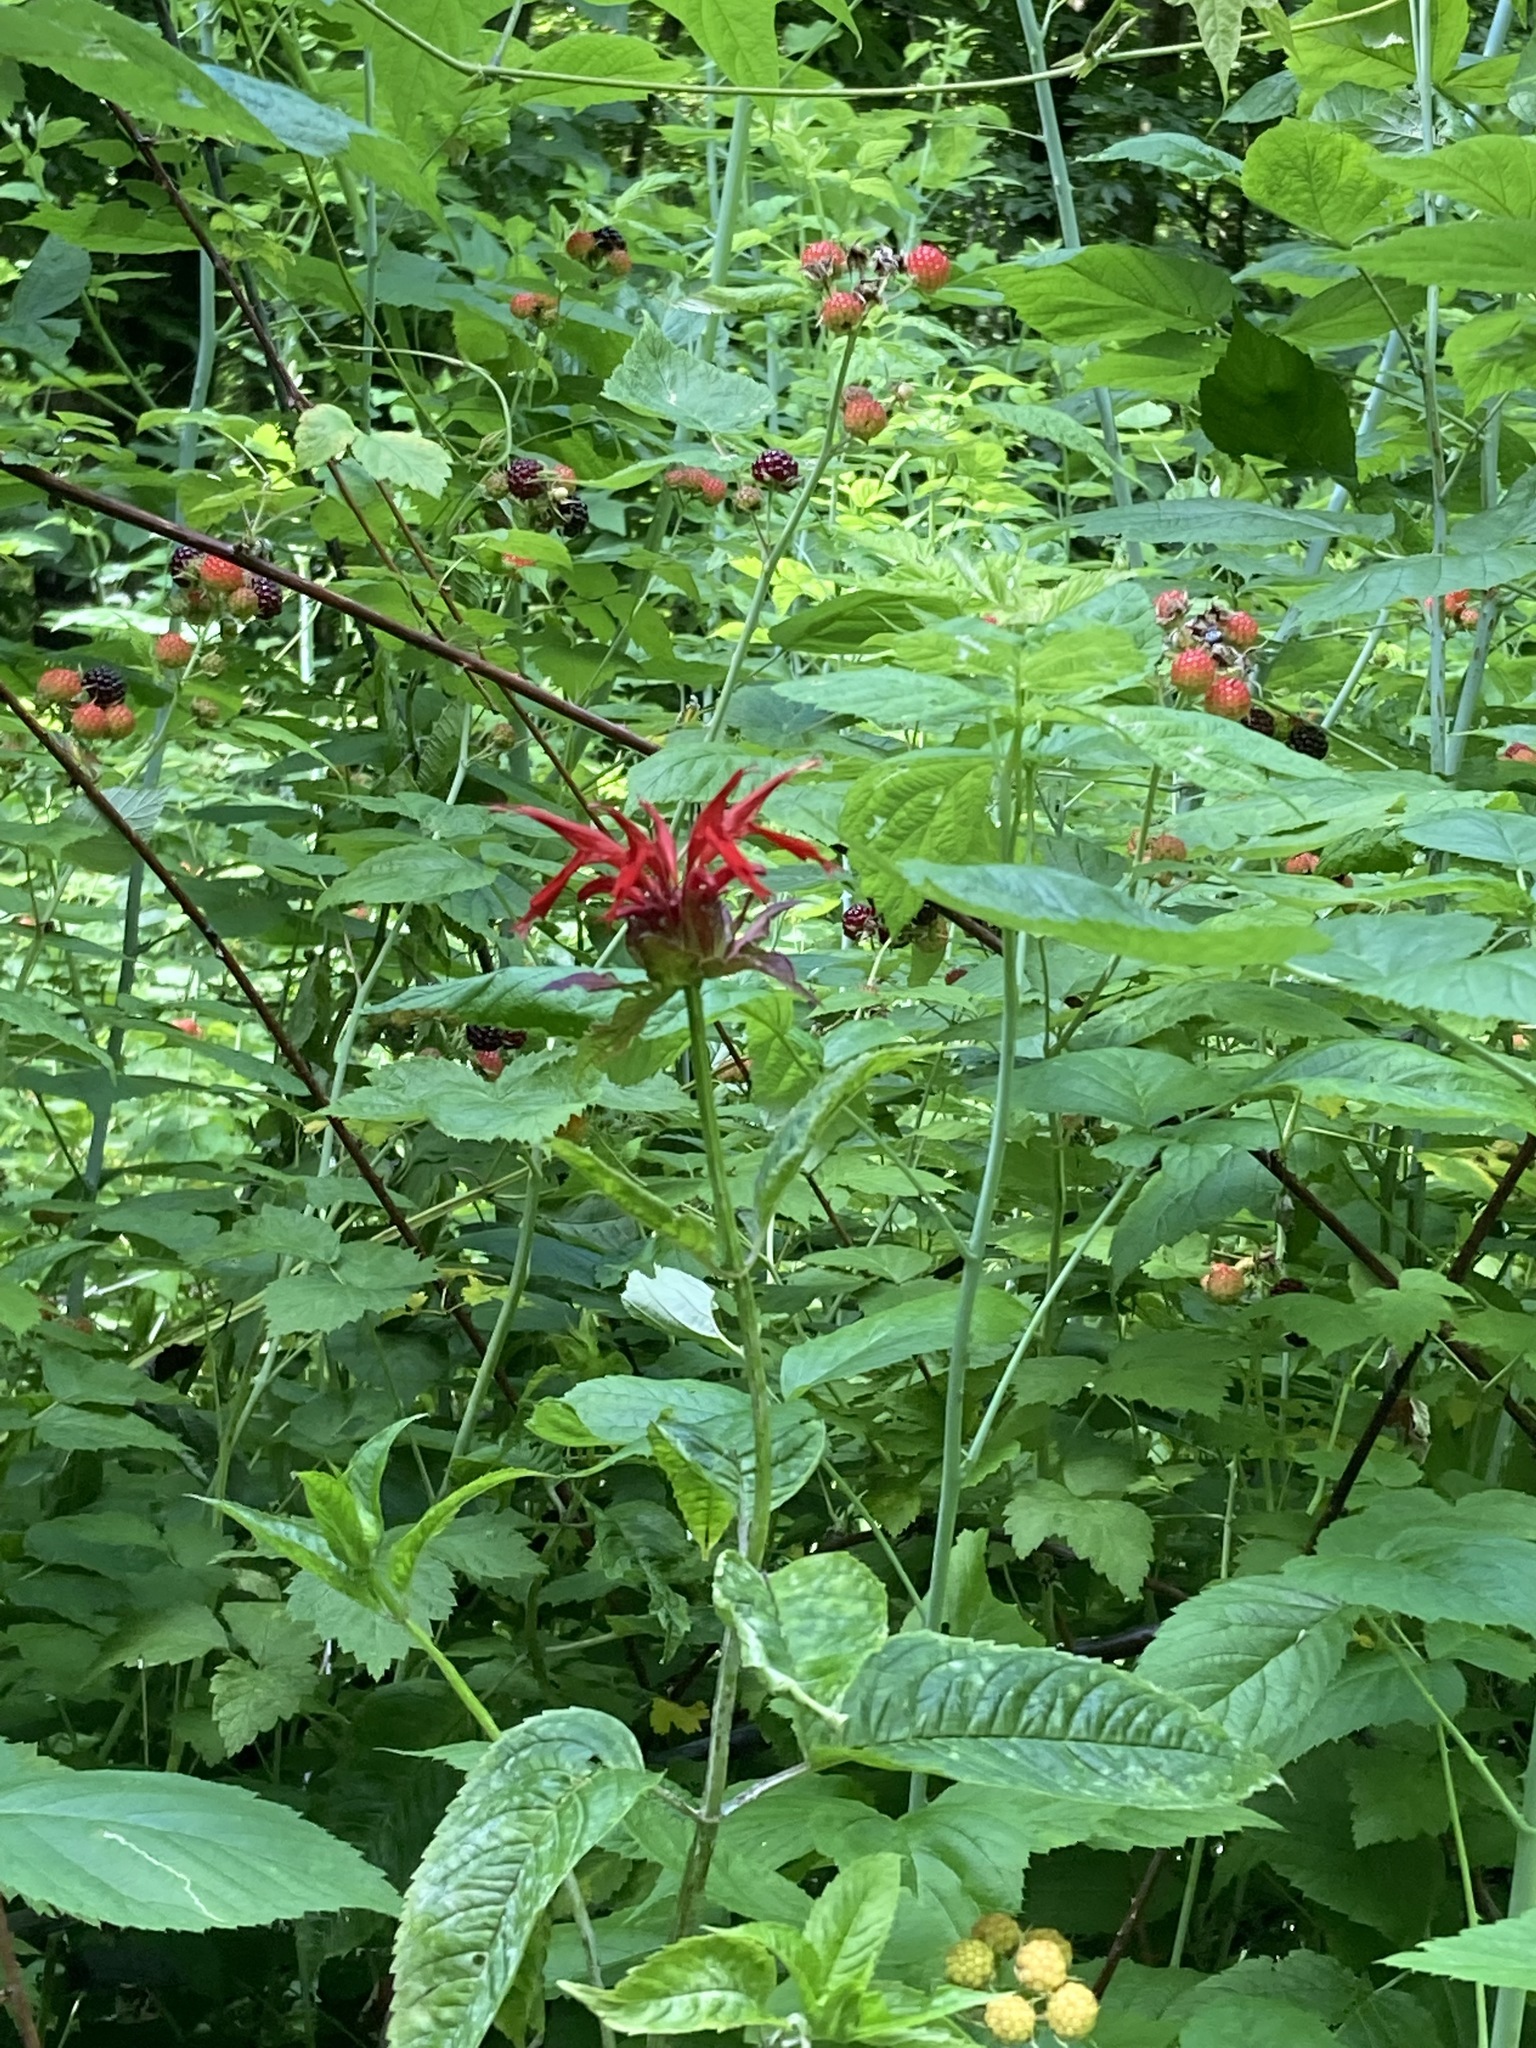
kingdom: Plantae
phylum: Tracheophyta
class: Magnoliopsida
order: Lamiales
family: Lamiaceae
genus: Monarda
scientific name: Monarda didyma
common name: Beebalm
